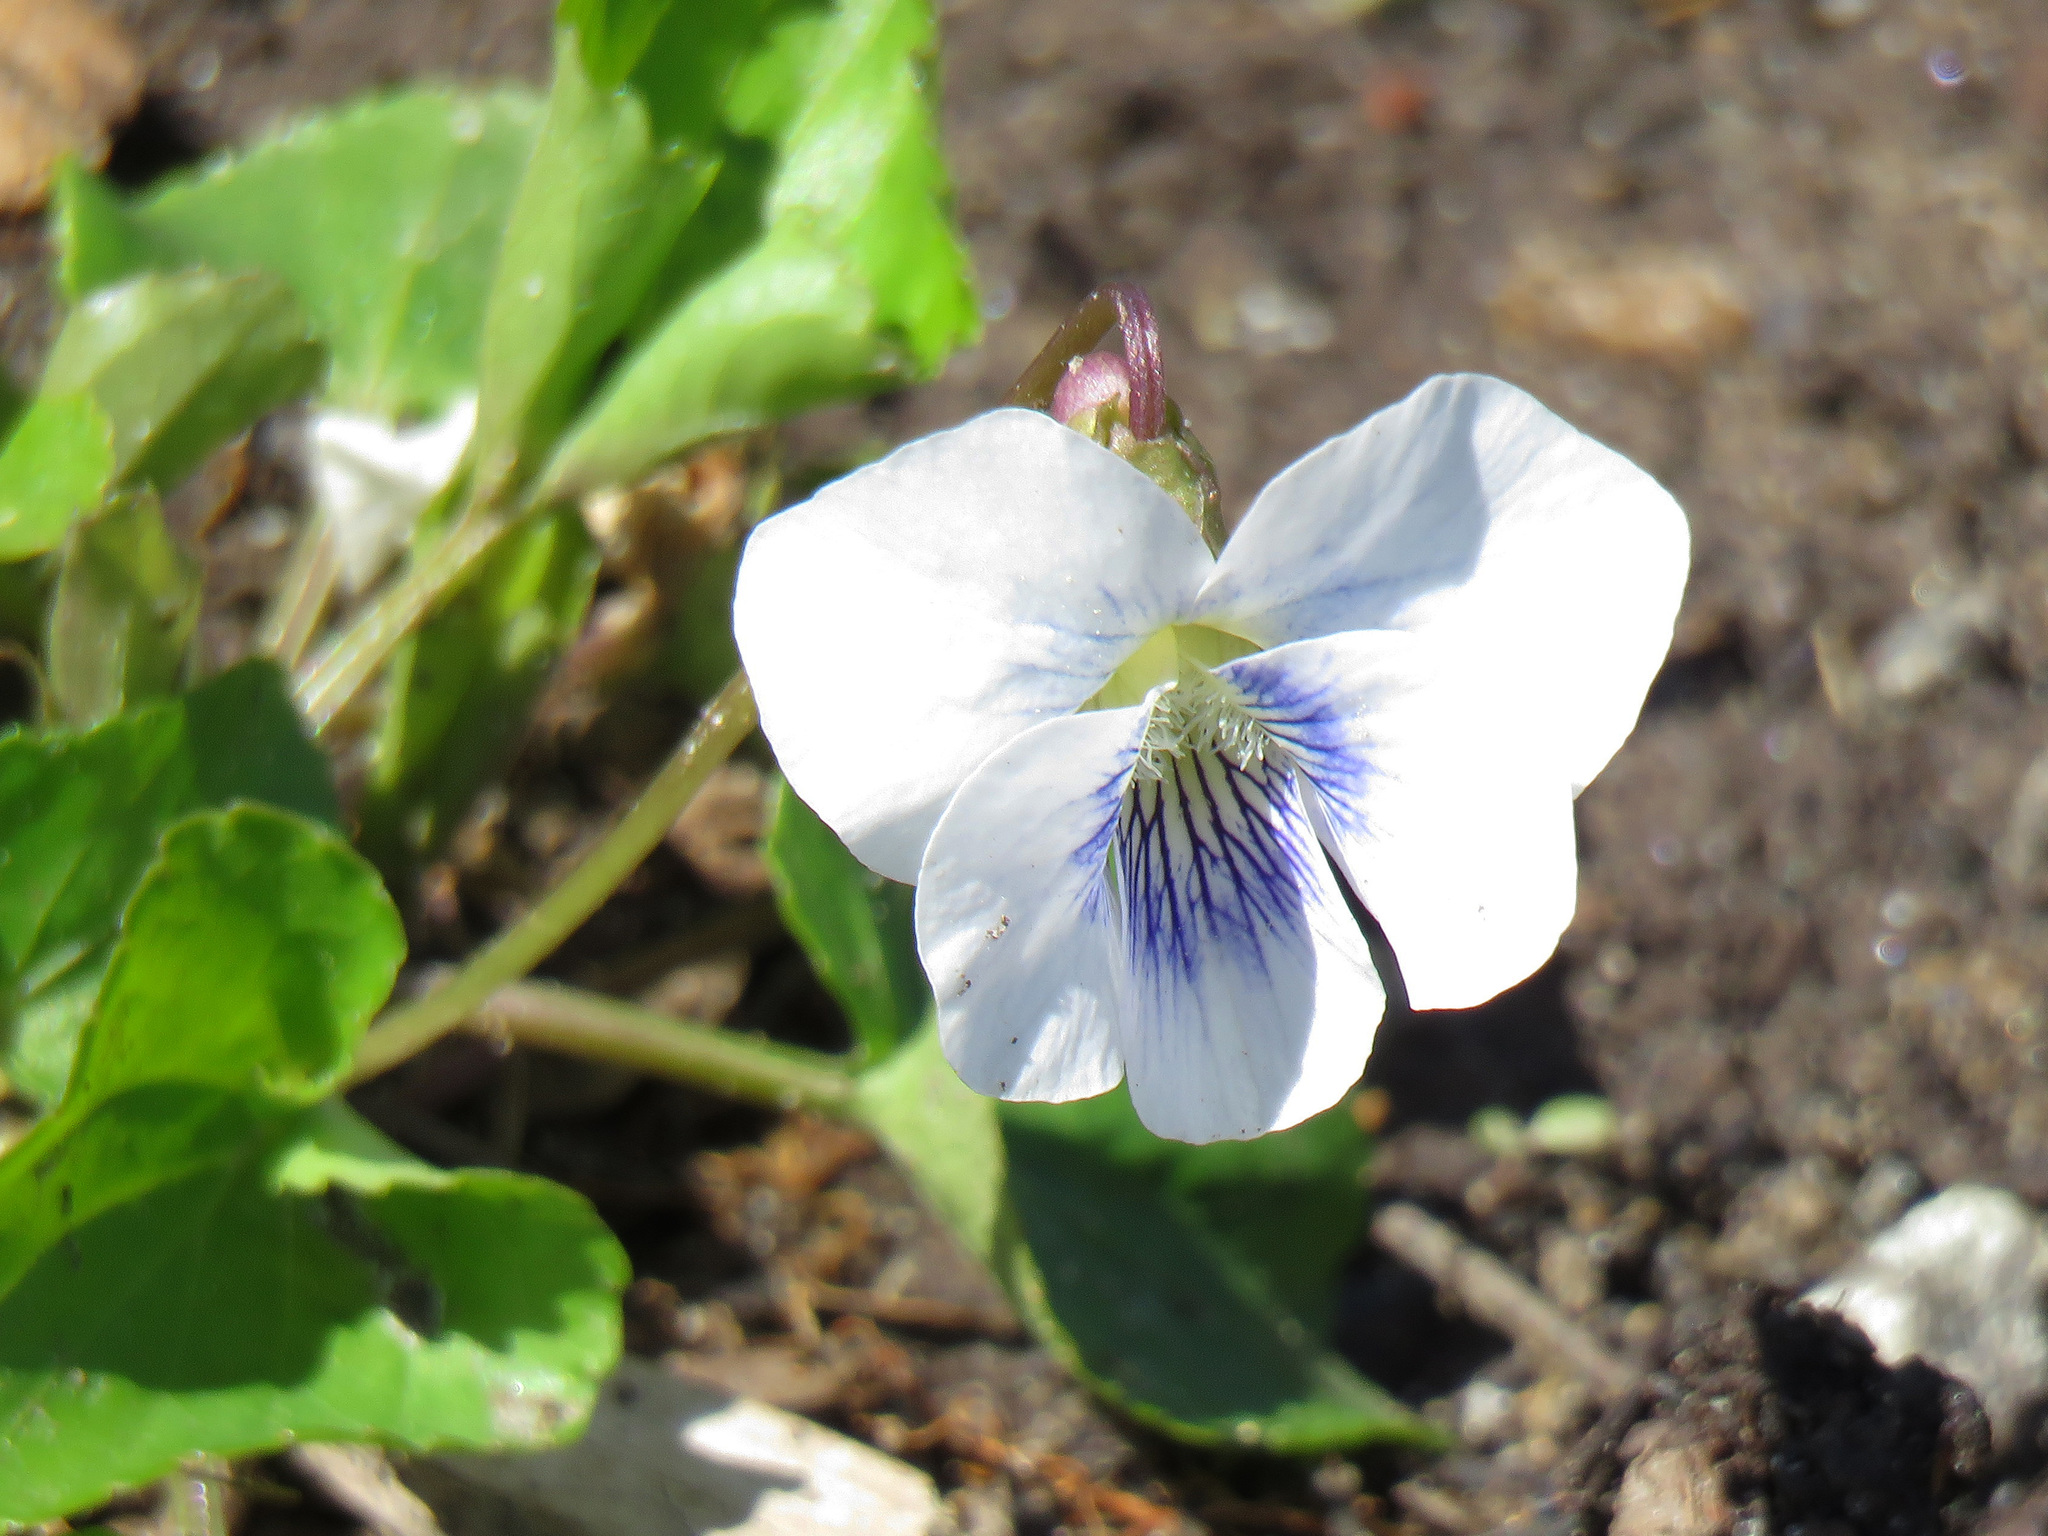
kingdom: Plantae
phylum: Tracheophyta
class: Magnoliopsida
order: Malpighiales
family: Violaceae
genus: Viola
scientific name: Viola sororia
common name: Dooryard violet
